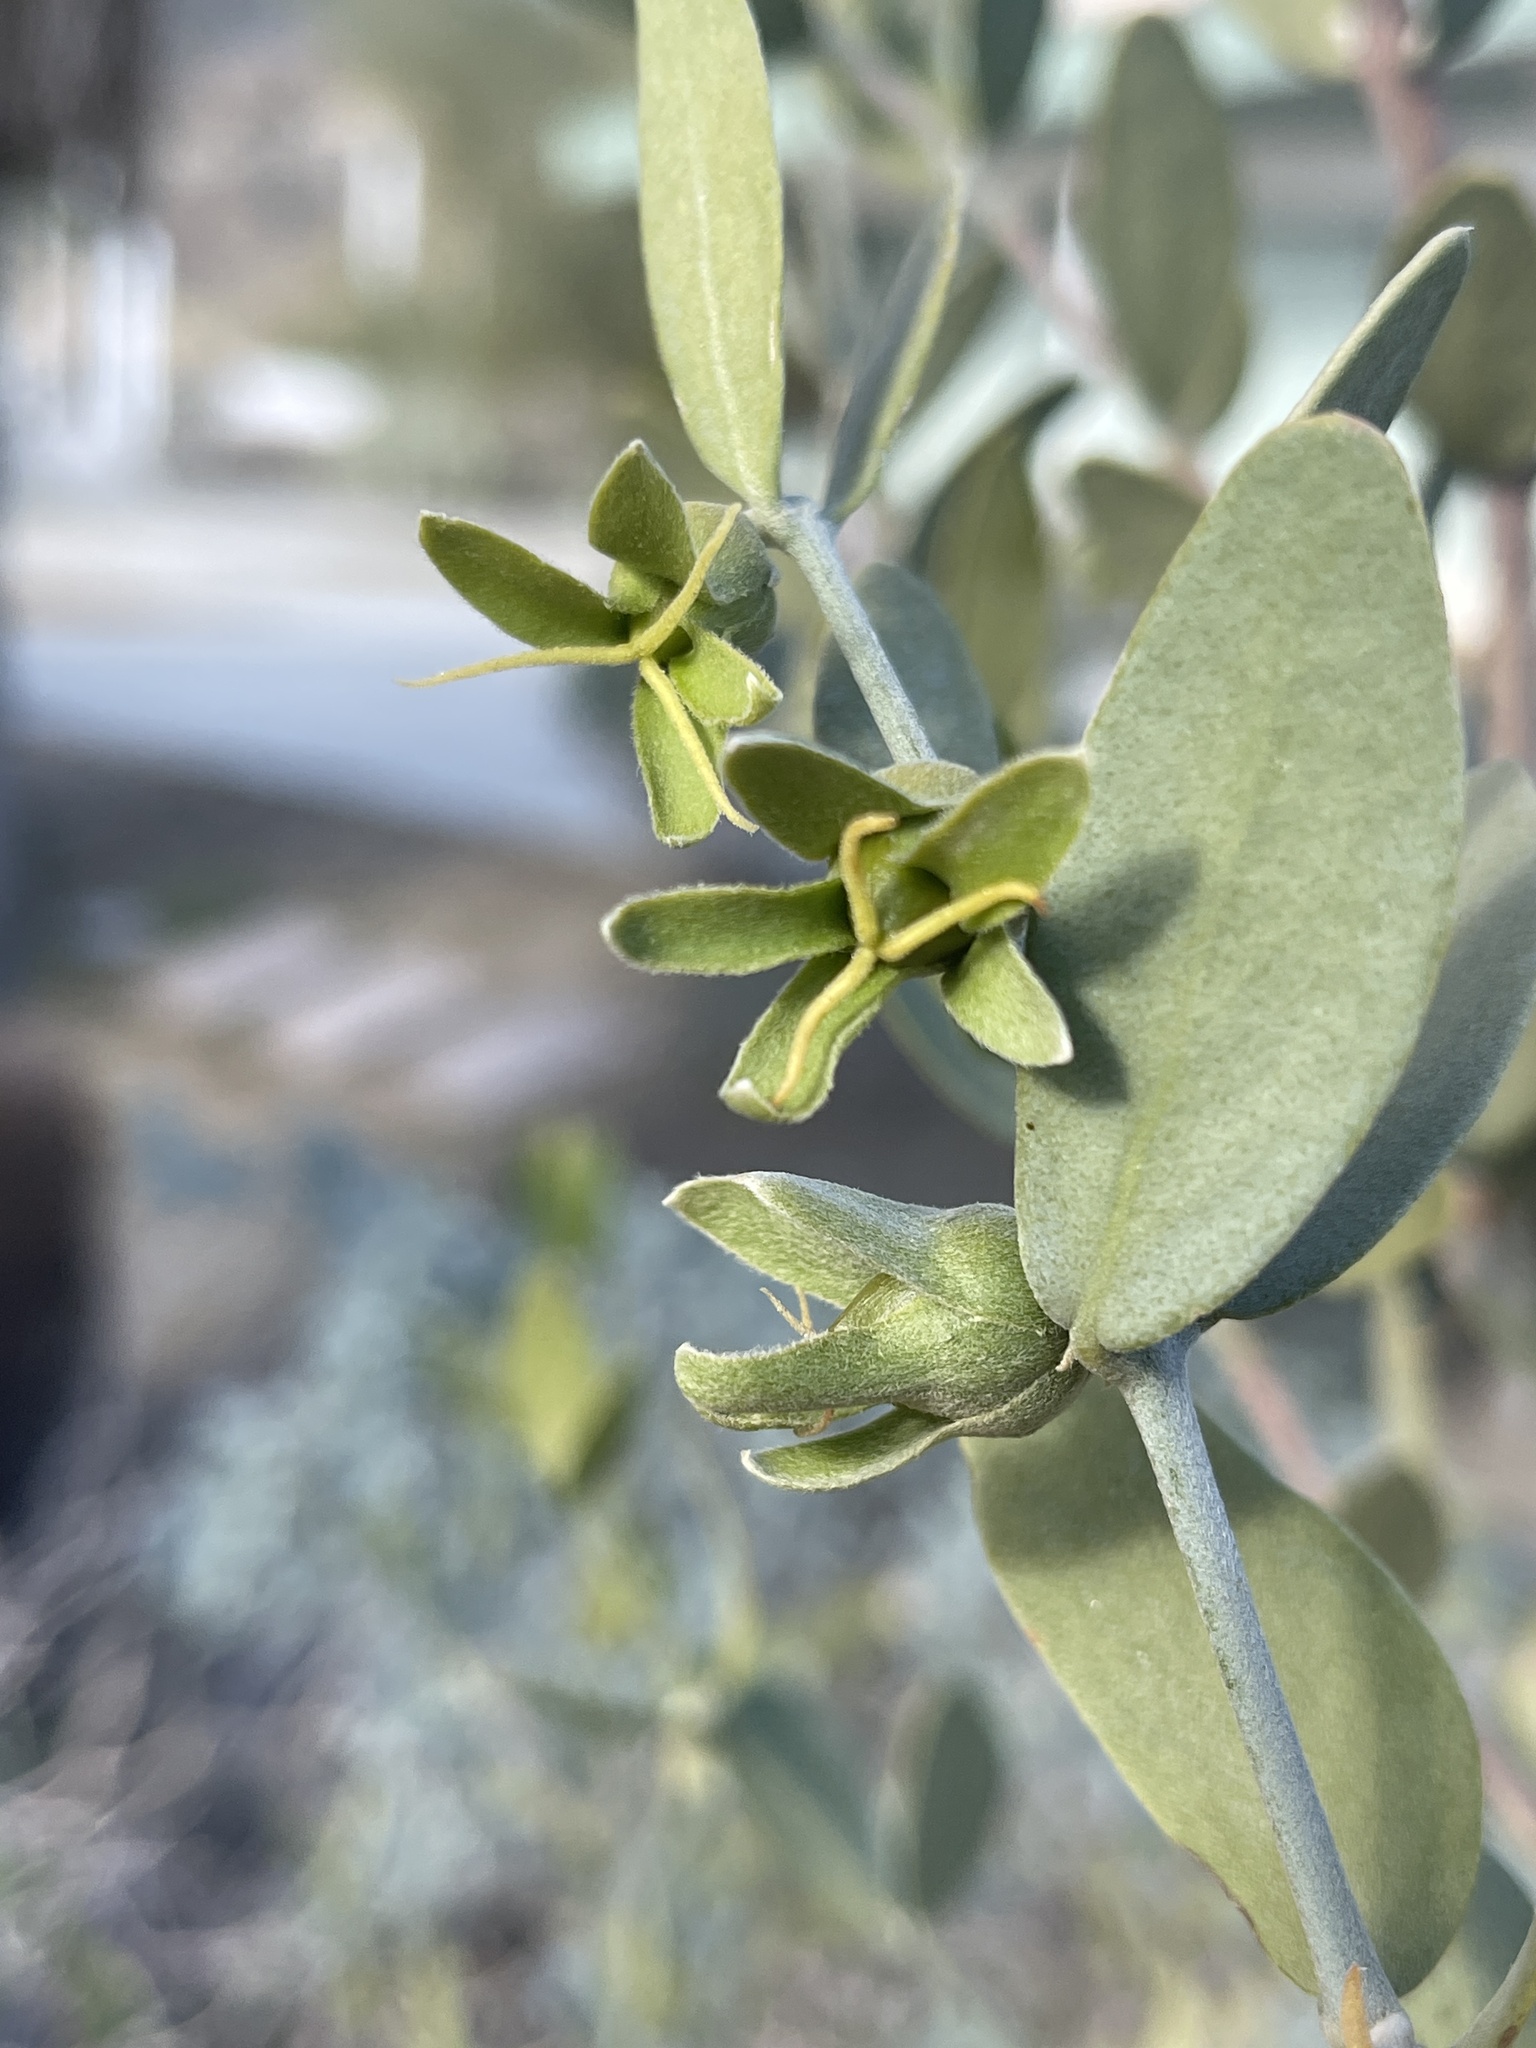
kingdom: Plantae
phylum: Tracheophyta
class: Magnoliopsida
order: Caryophyllales
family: Simmondsiaceae
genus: Simmondsia
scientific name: Simmondsia chinensis
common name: Jojoba
